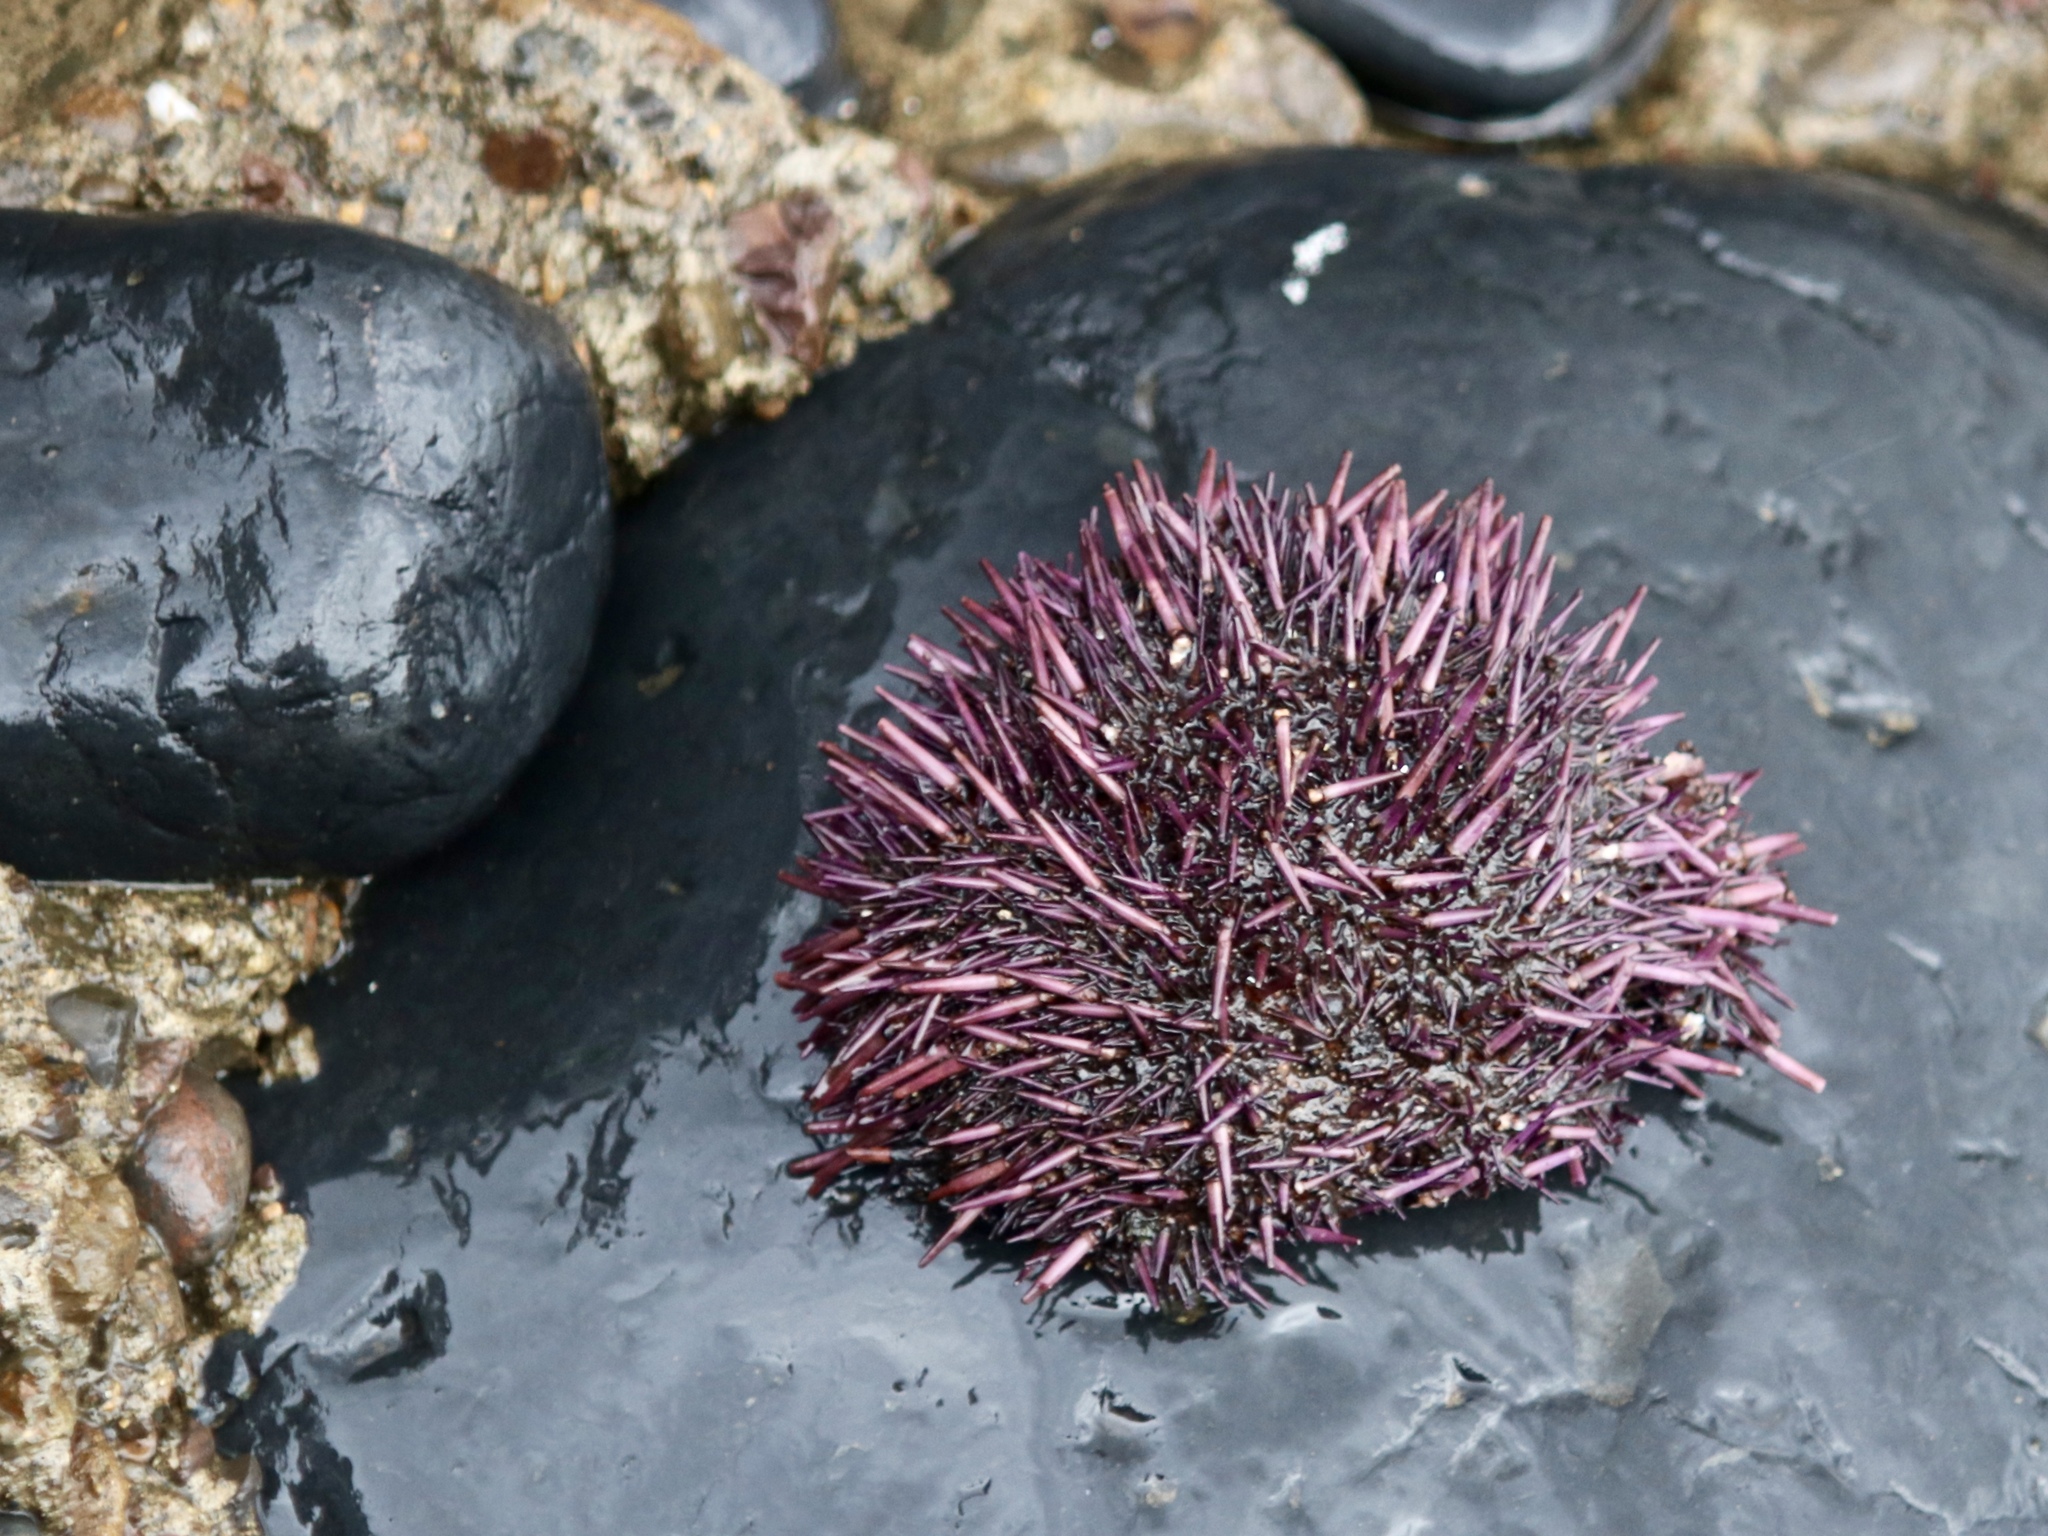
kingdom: Animalia
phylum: Echinodermata
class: Echinoidea
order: Camarodonta
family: Strongylocentrotidae
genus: Strongylocentrotus
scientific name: Strongylocentrotus purpuratus
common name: Purple sea urchin
